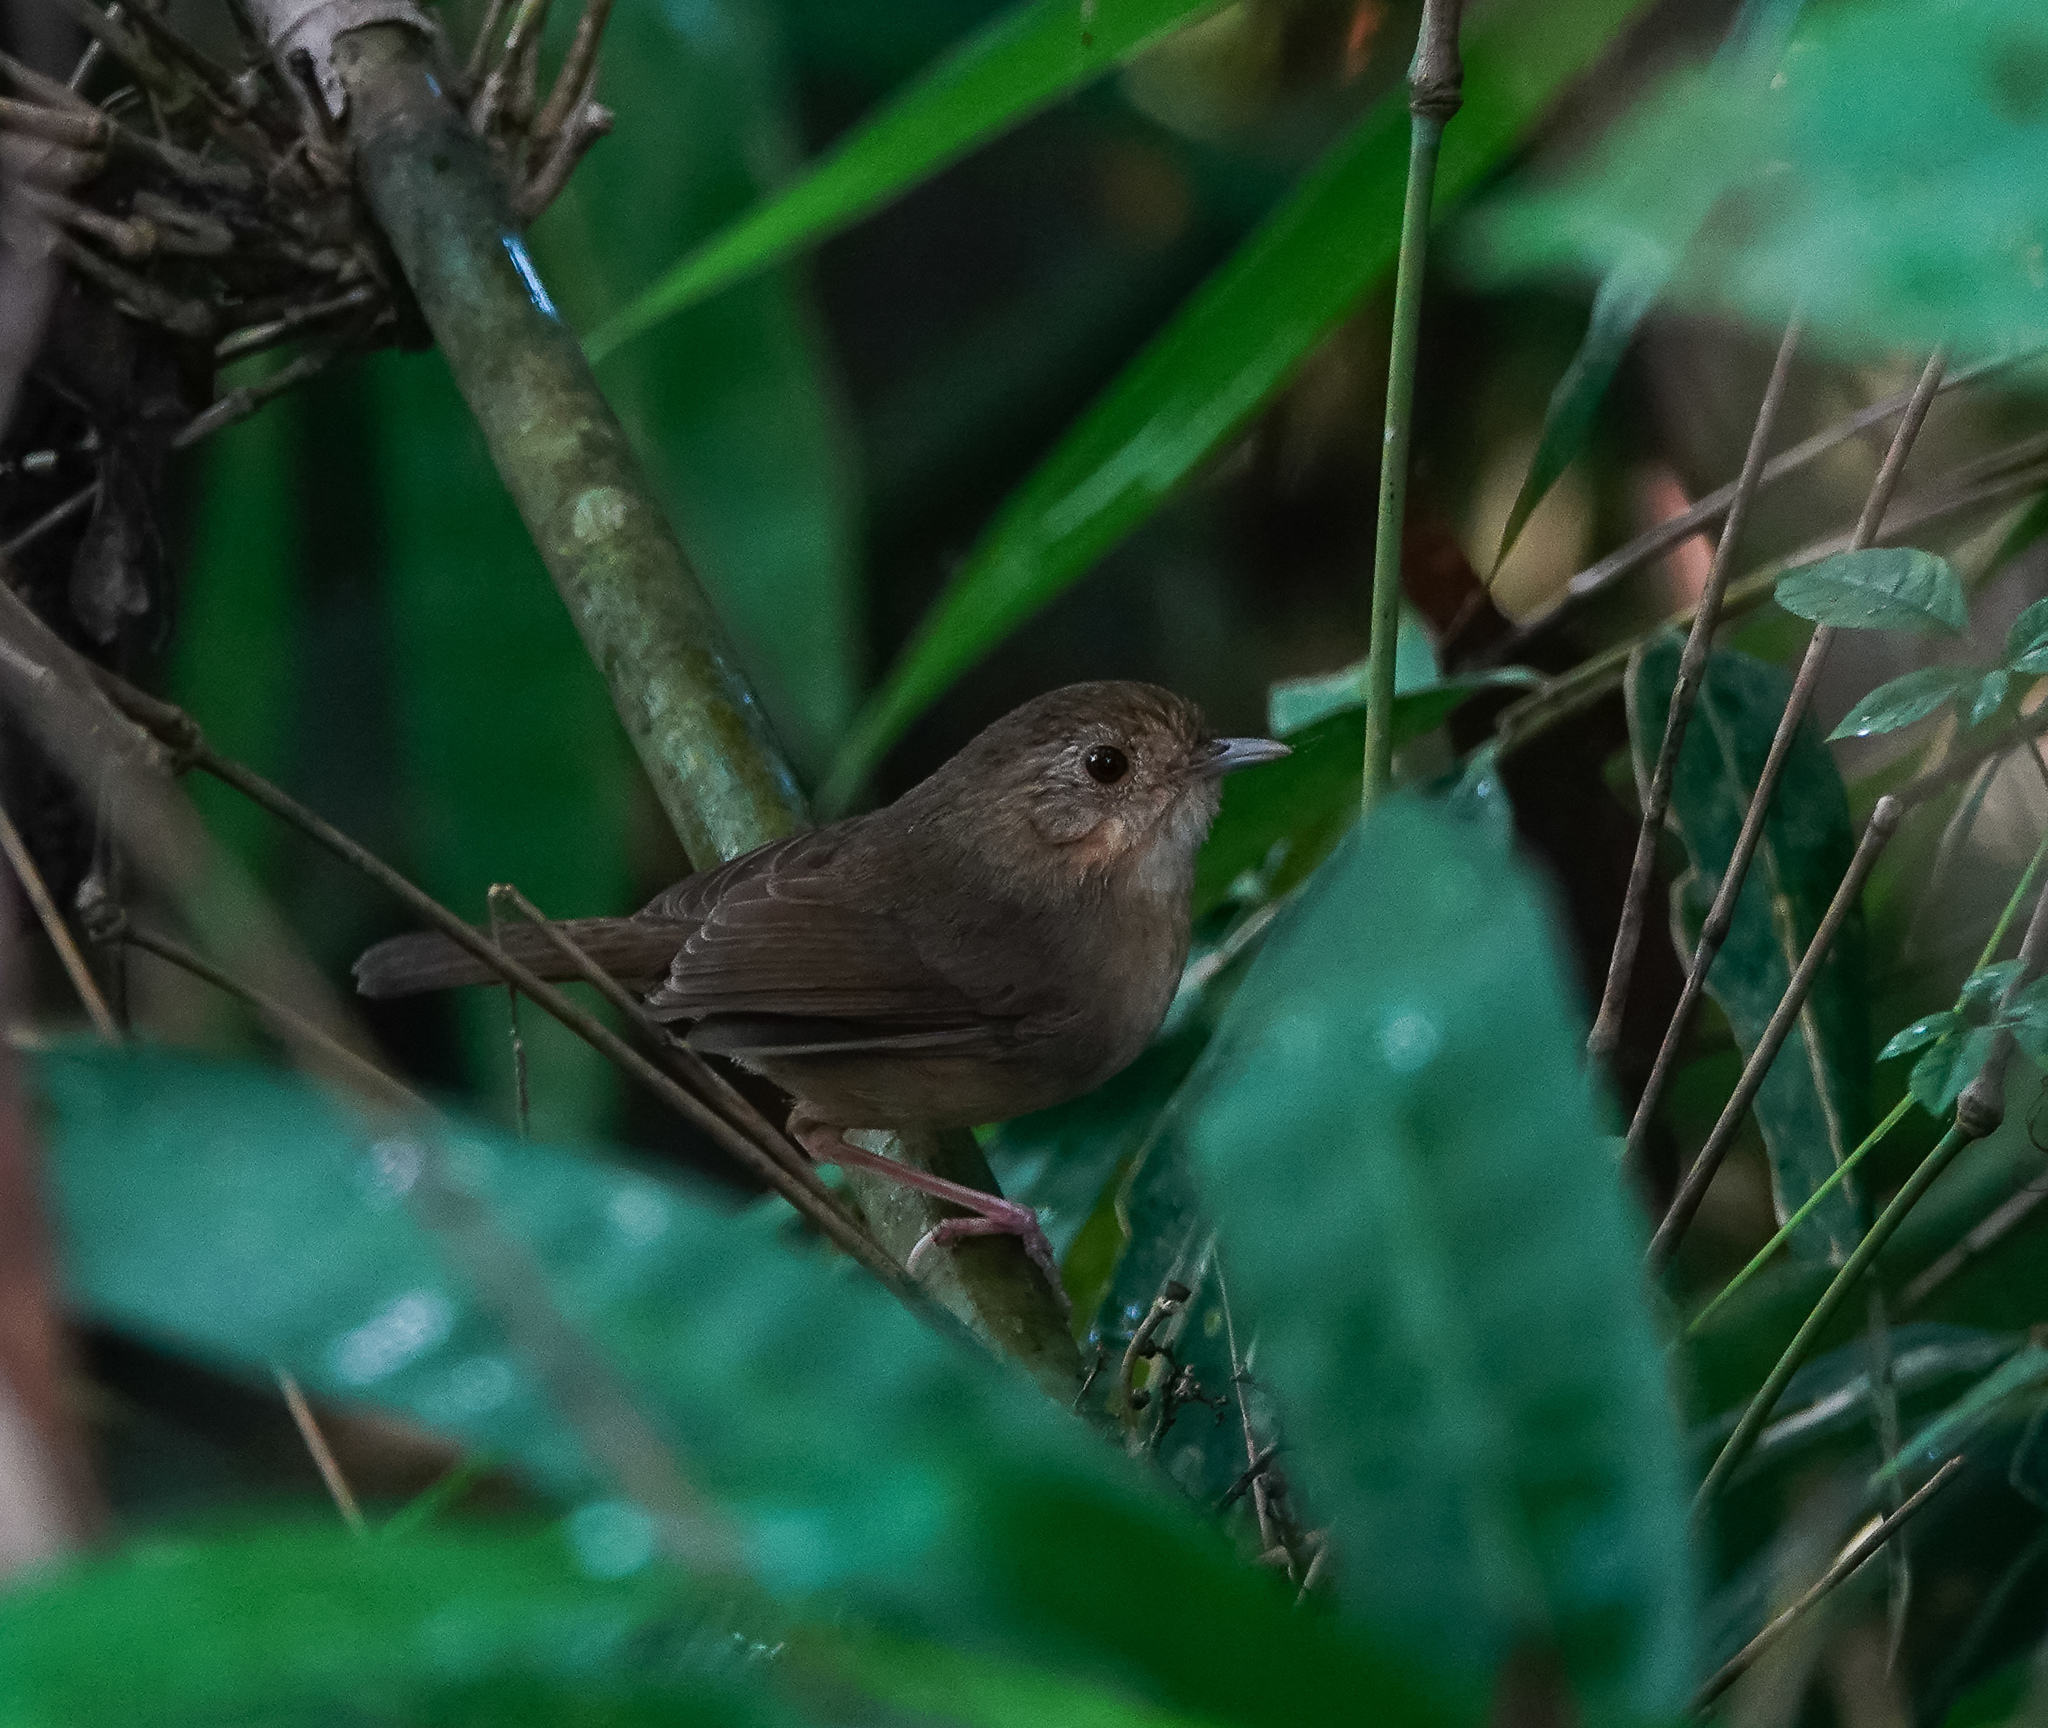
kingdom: Animalia
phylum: Chordata
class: Aves
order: Passeriformes
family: Pellorneidae
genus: Pellorneum
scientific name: Pellorneum tickelli
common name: Buff-breasted babbler
